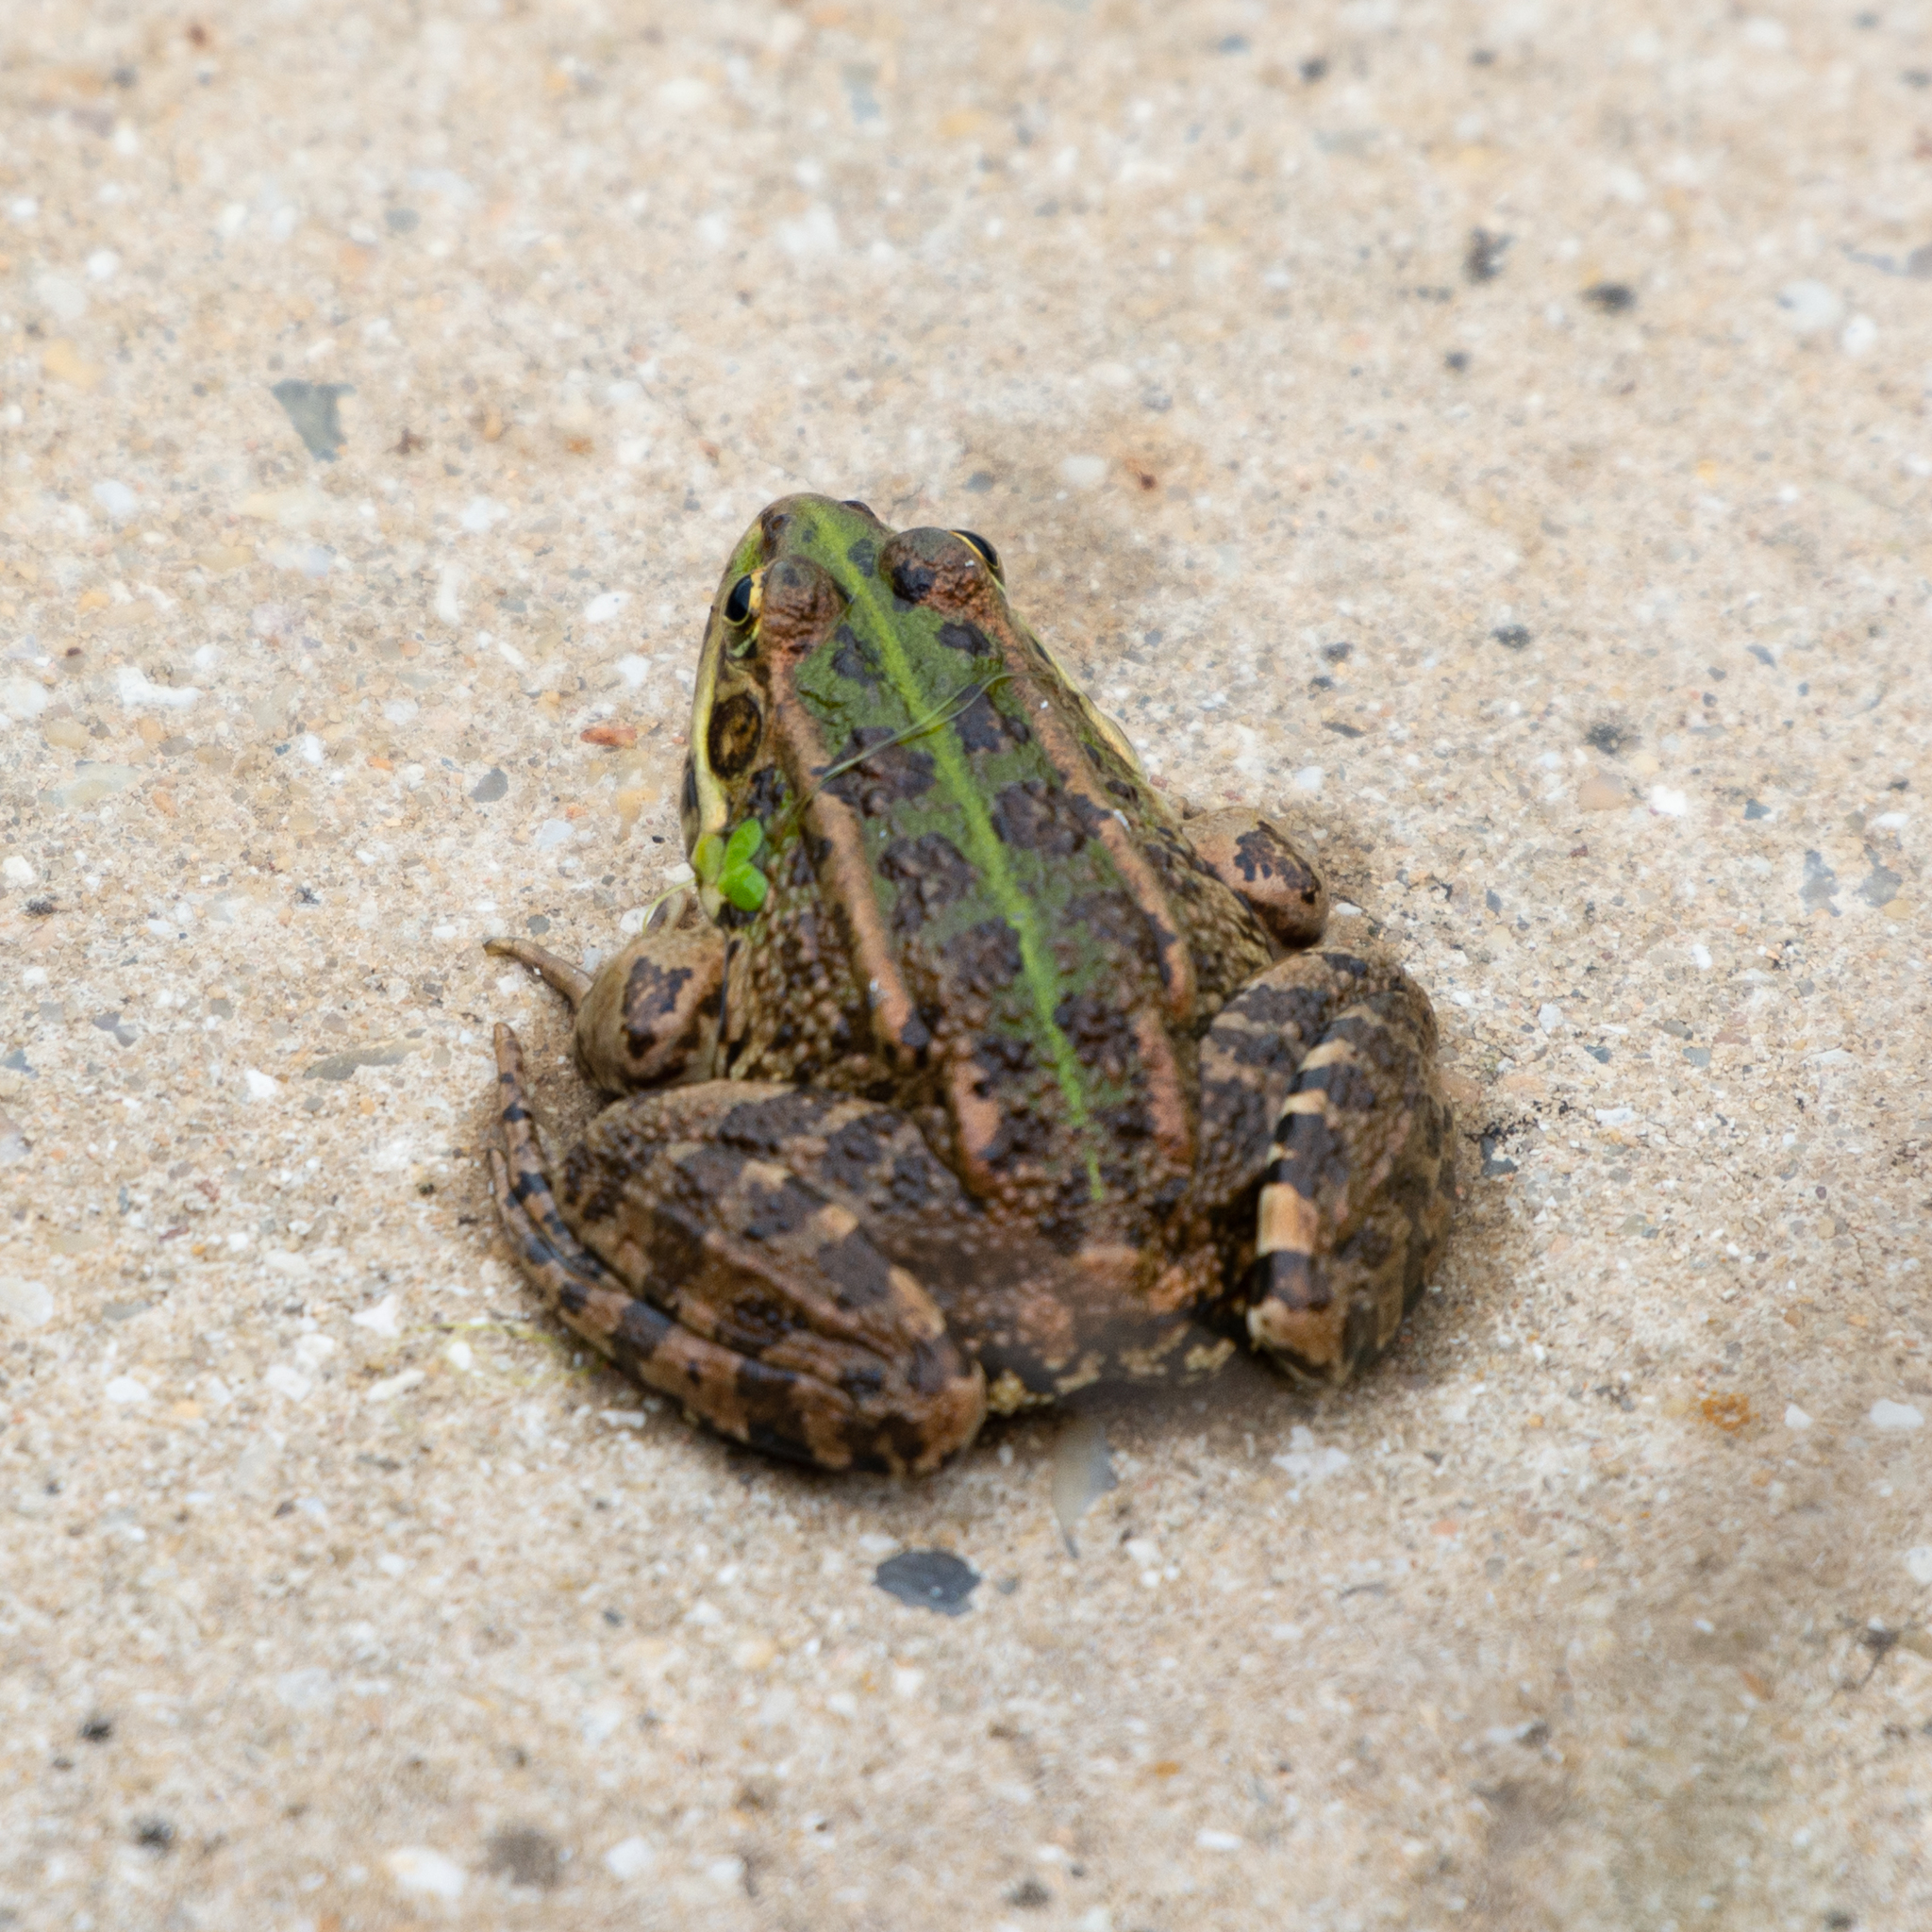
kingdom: Animalia
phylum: Chordata
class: Amphibia
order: Anura
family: Ranidae
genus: Pelophylax
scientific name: Pelophylax perezi
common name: Perez's frog
